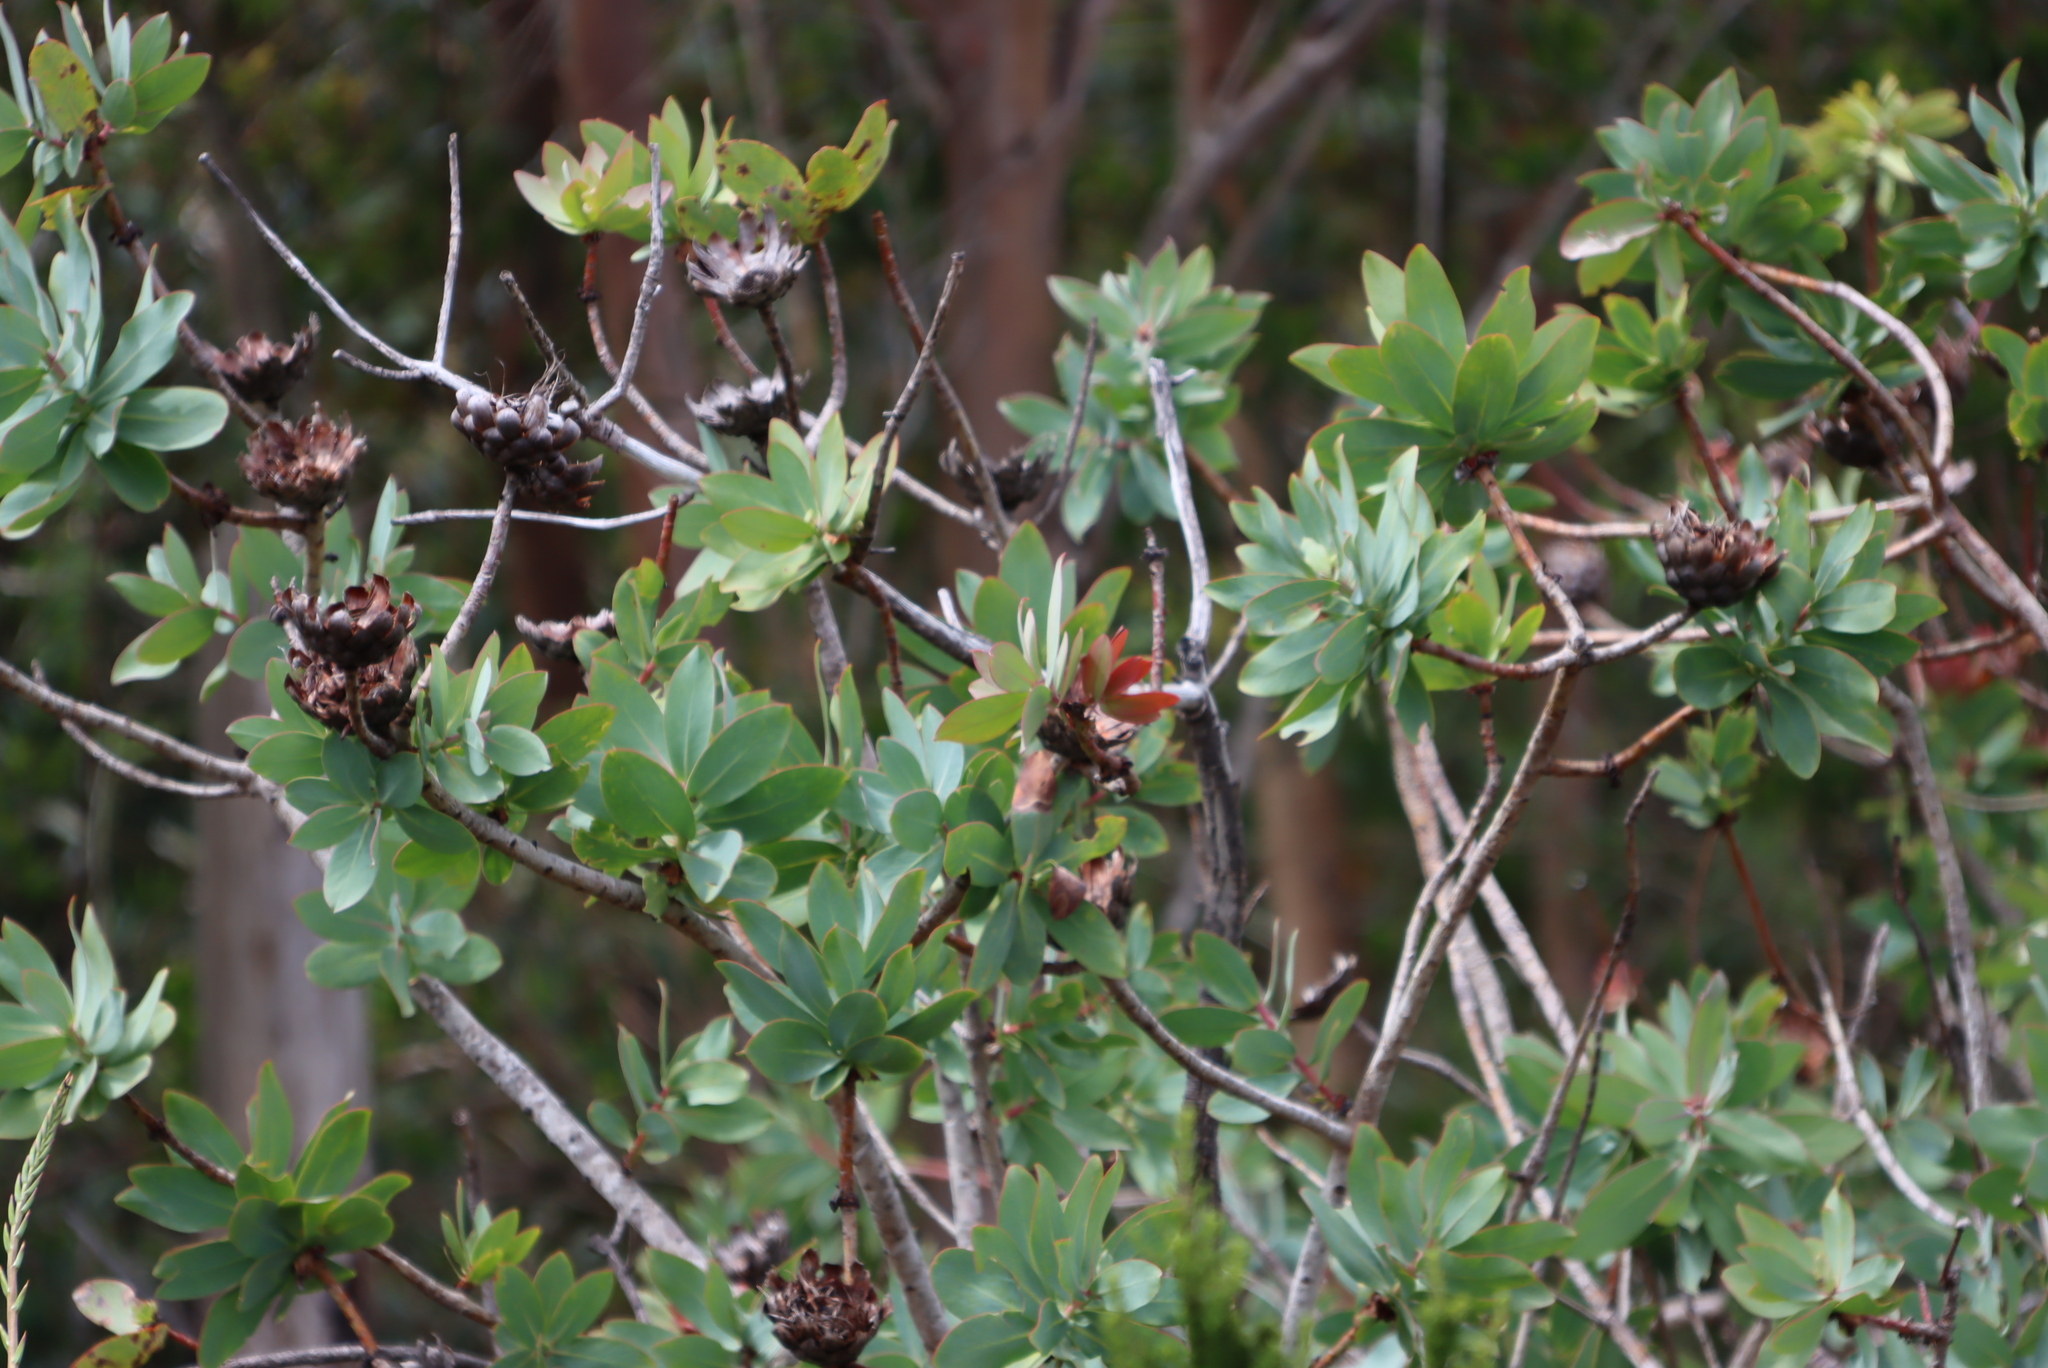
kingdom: Plantae
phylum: Tracheophyta
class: Magnoliopsida
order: Proteales
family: Proteaceae
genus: Protea
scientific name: Protea nitida
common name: Tree protea
